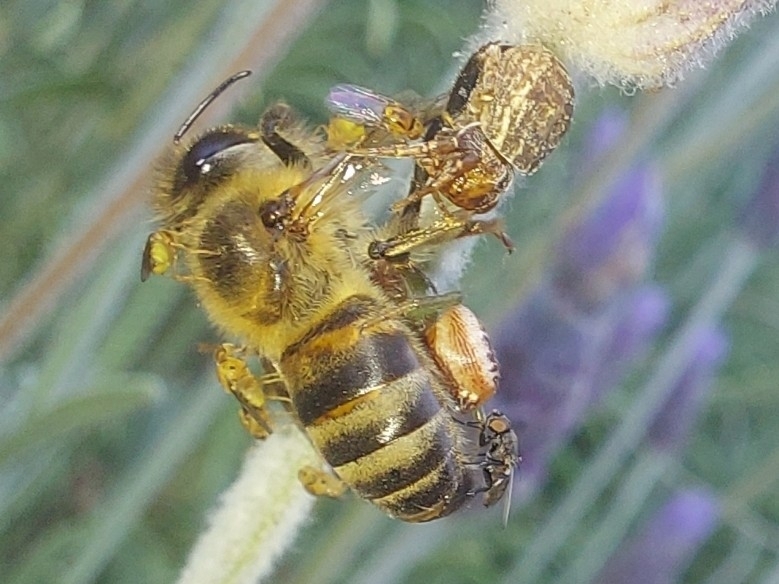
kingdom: Animalia
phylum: Arthropoda
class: Insecta
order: Hymenoptera
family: Apidae
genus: Apis
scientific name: Apis mellifera
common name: Honey bee
